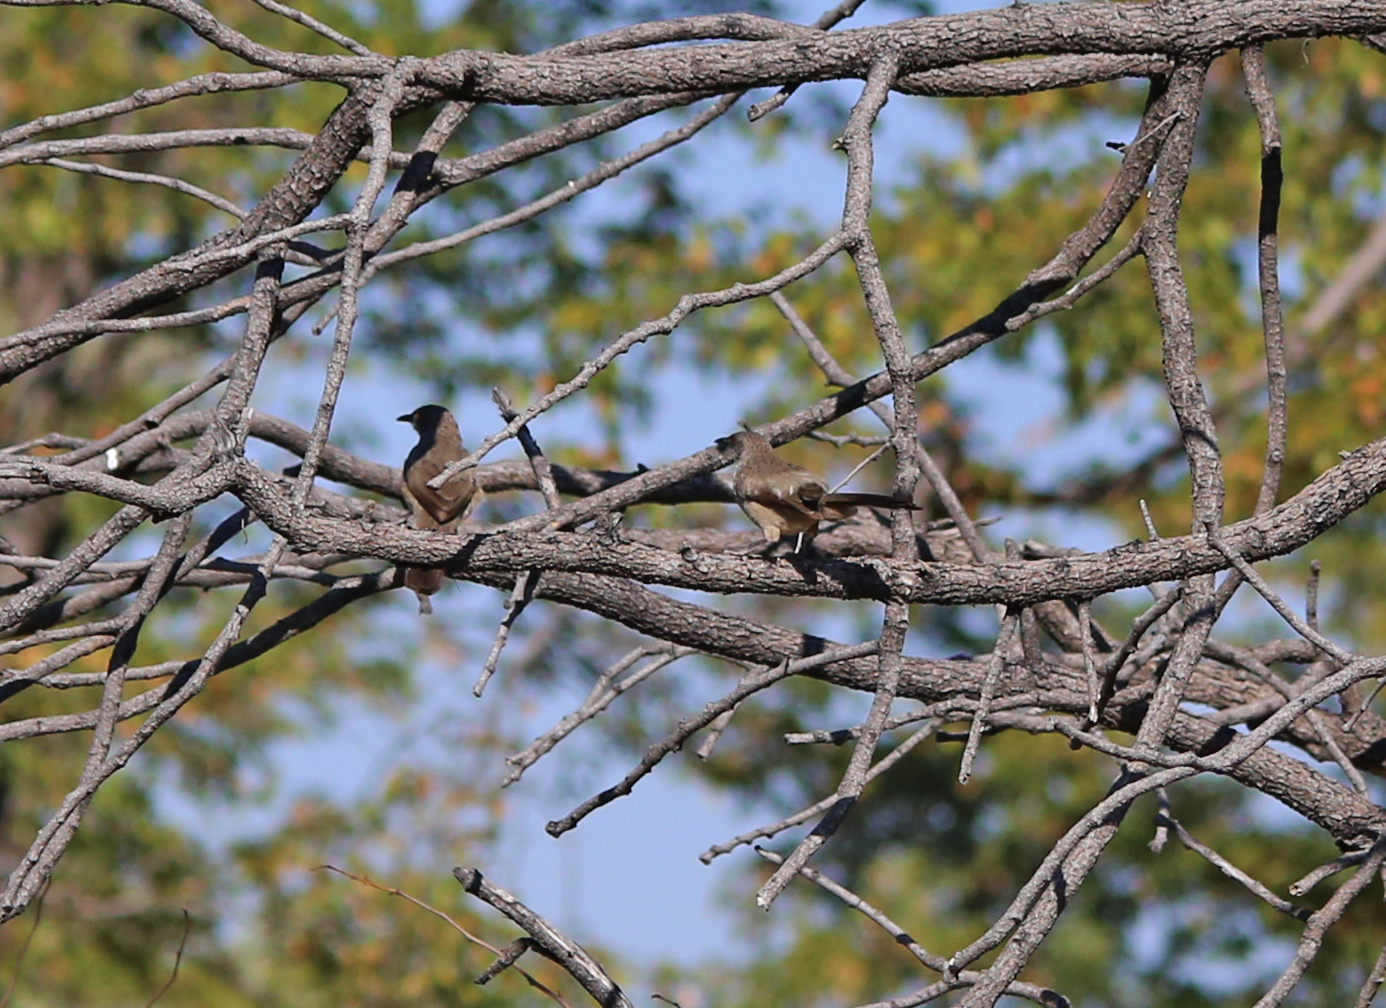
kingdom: Animalia
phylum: Chordata
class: Aves
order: Passeriformes
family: Leiothrichidae
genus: Turdoides
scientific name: Turdoides hartlaubii
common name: Hartlaub's babbler
